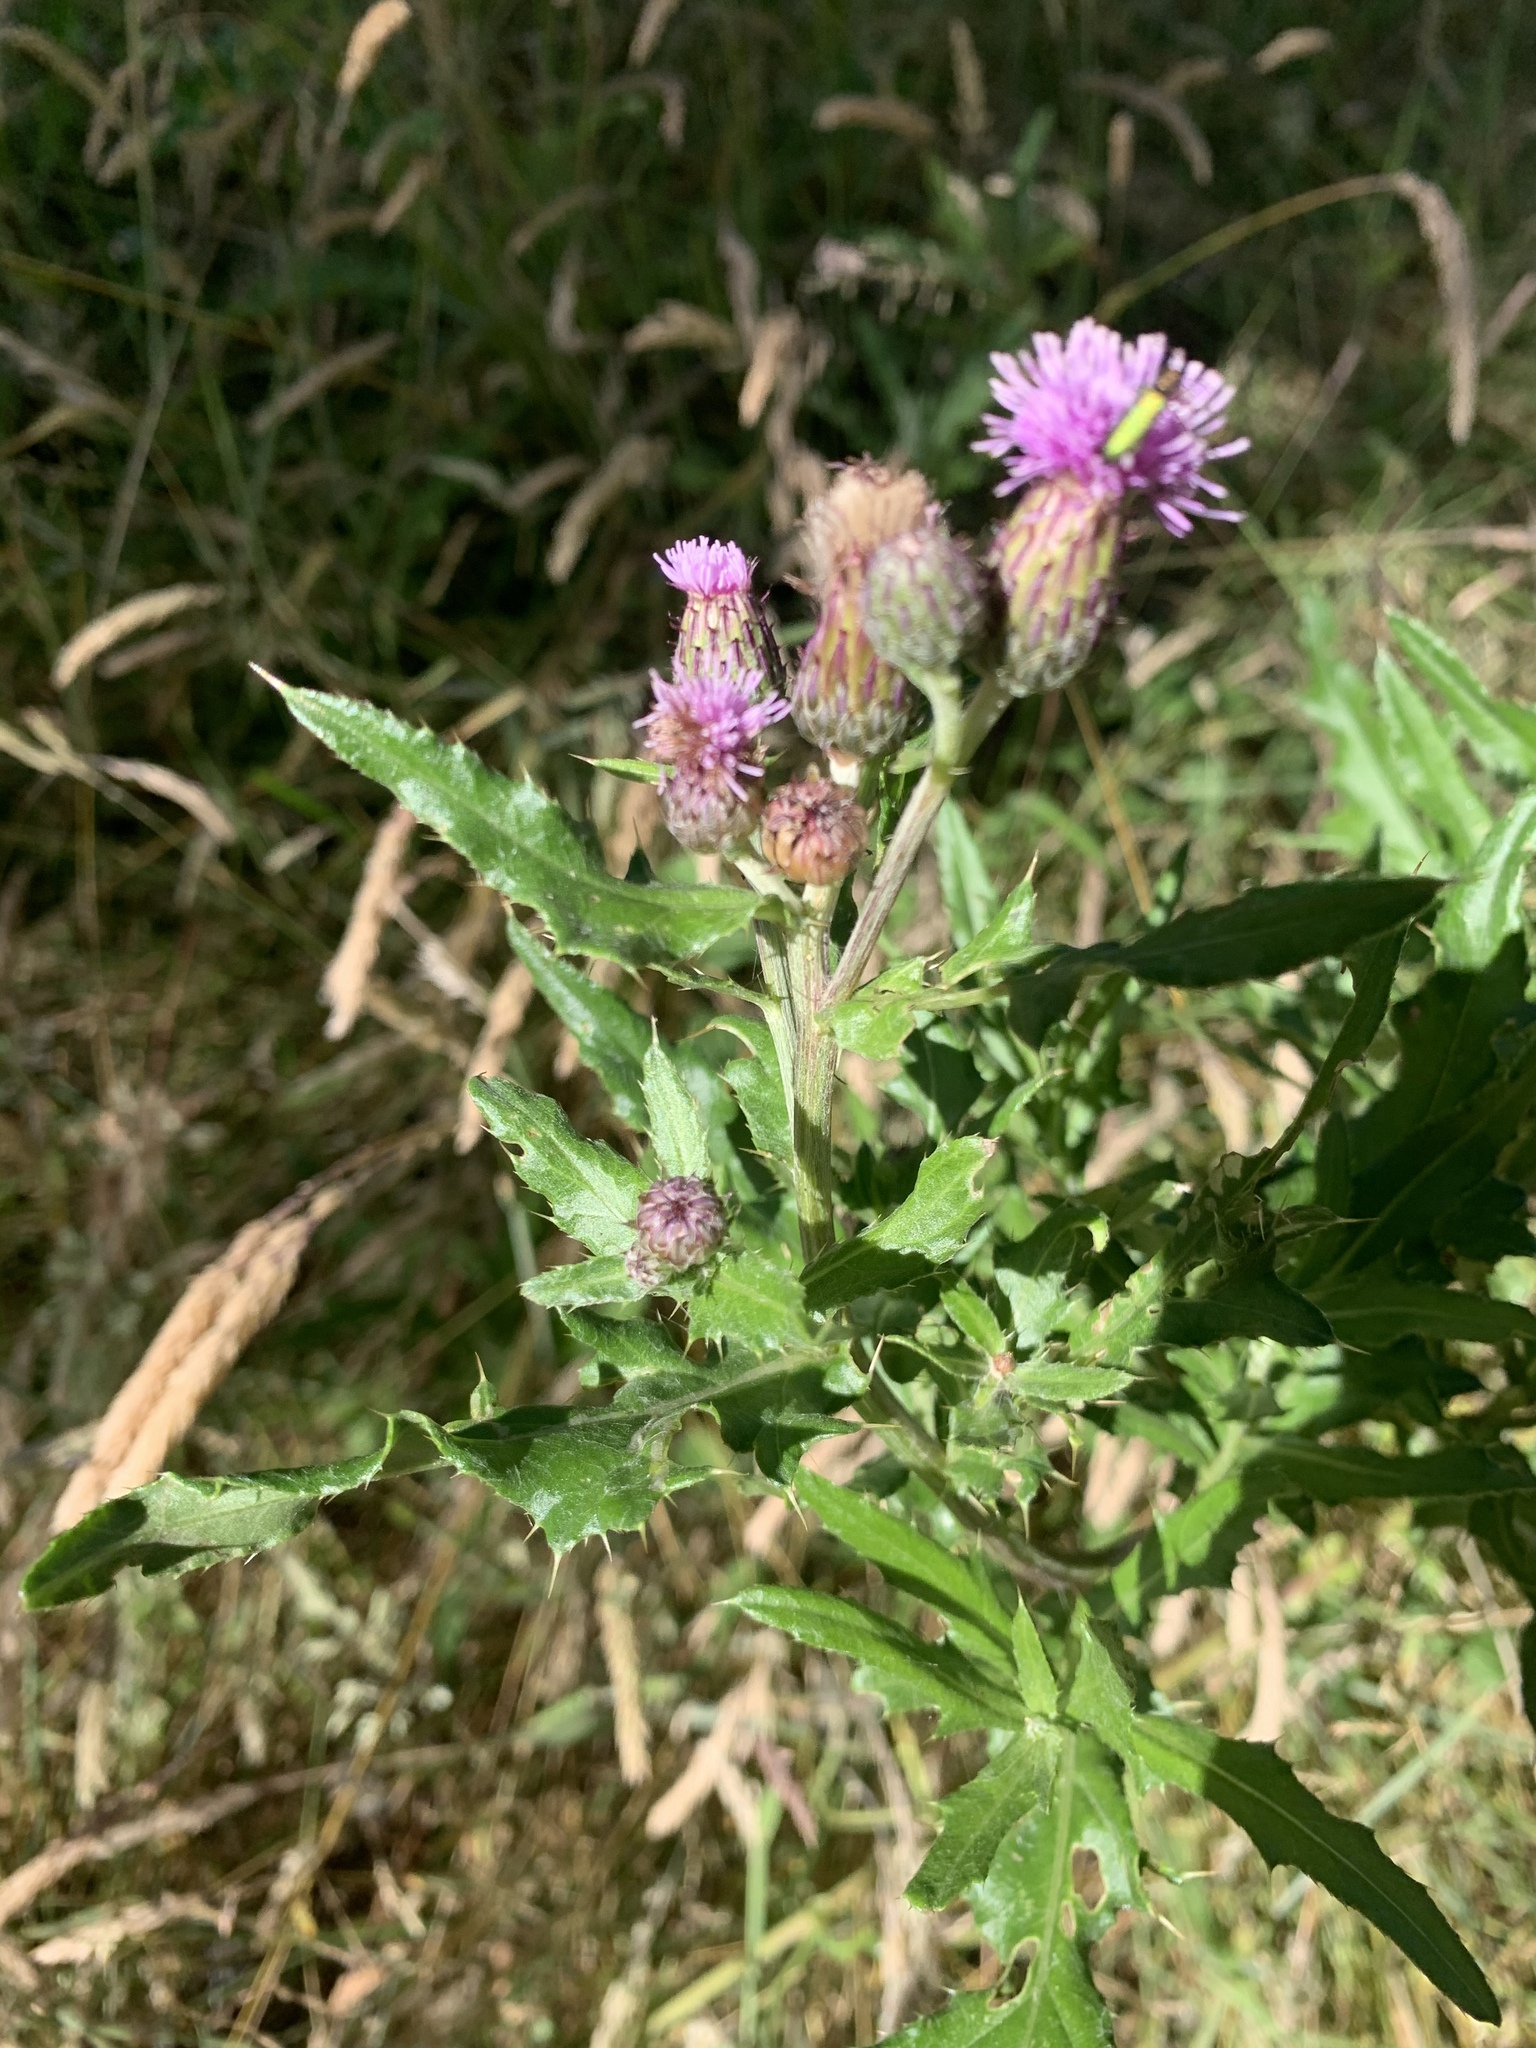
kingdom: Plantae
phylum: Tracheophyta
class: Magnoliopsida
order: Asterales
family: Asteraceae
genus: Cirsium
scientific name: Cirsium arvense
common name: Creeping thistle
